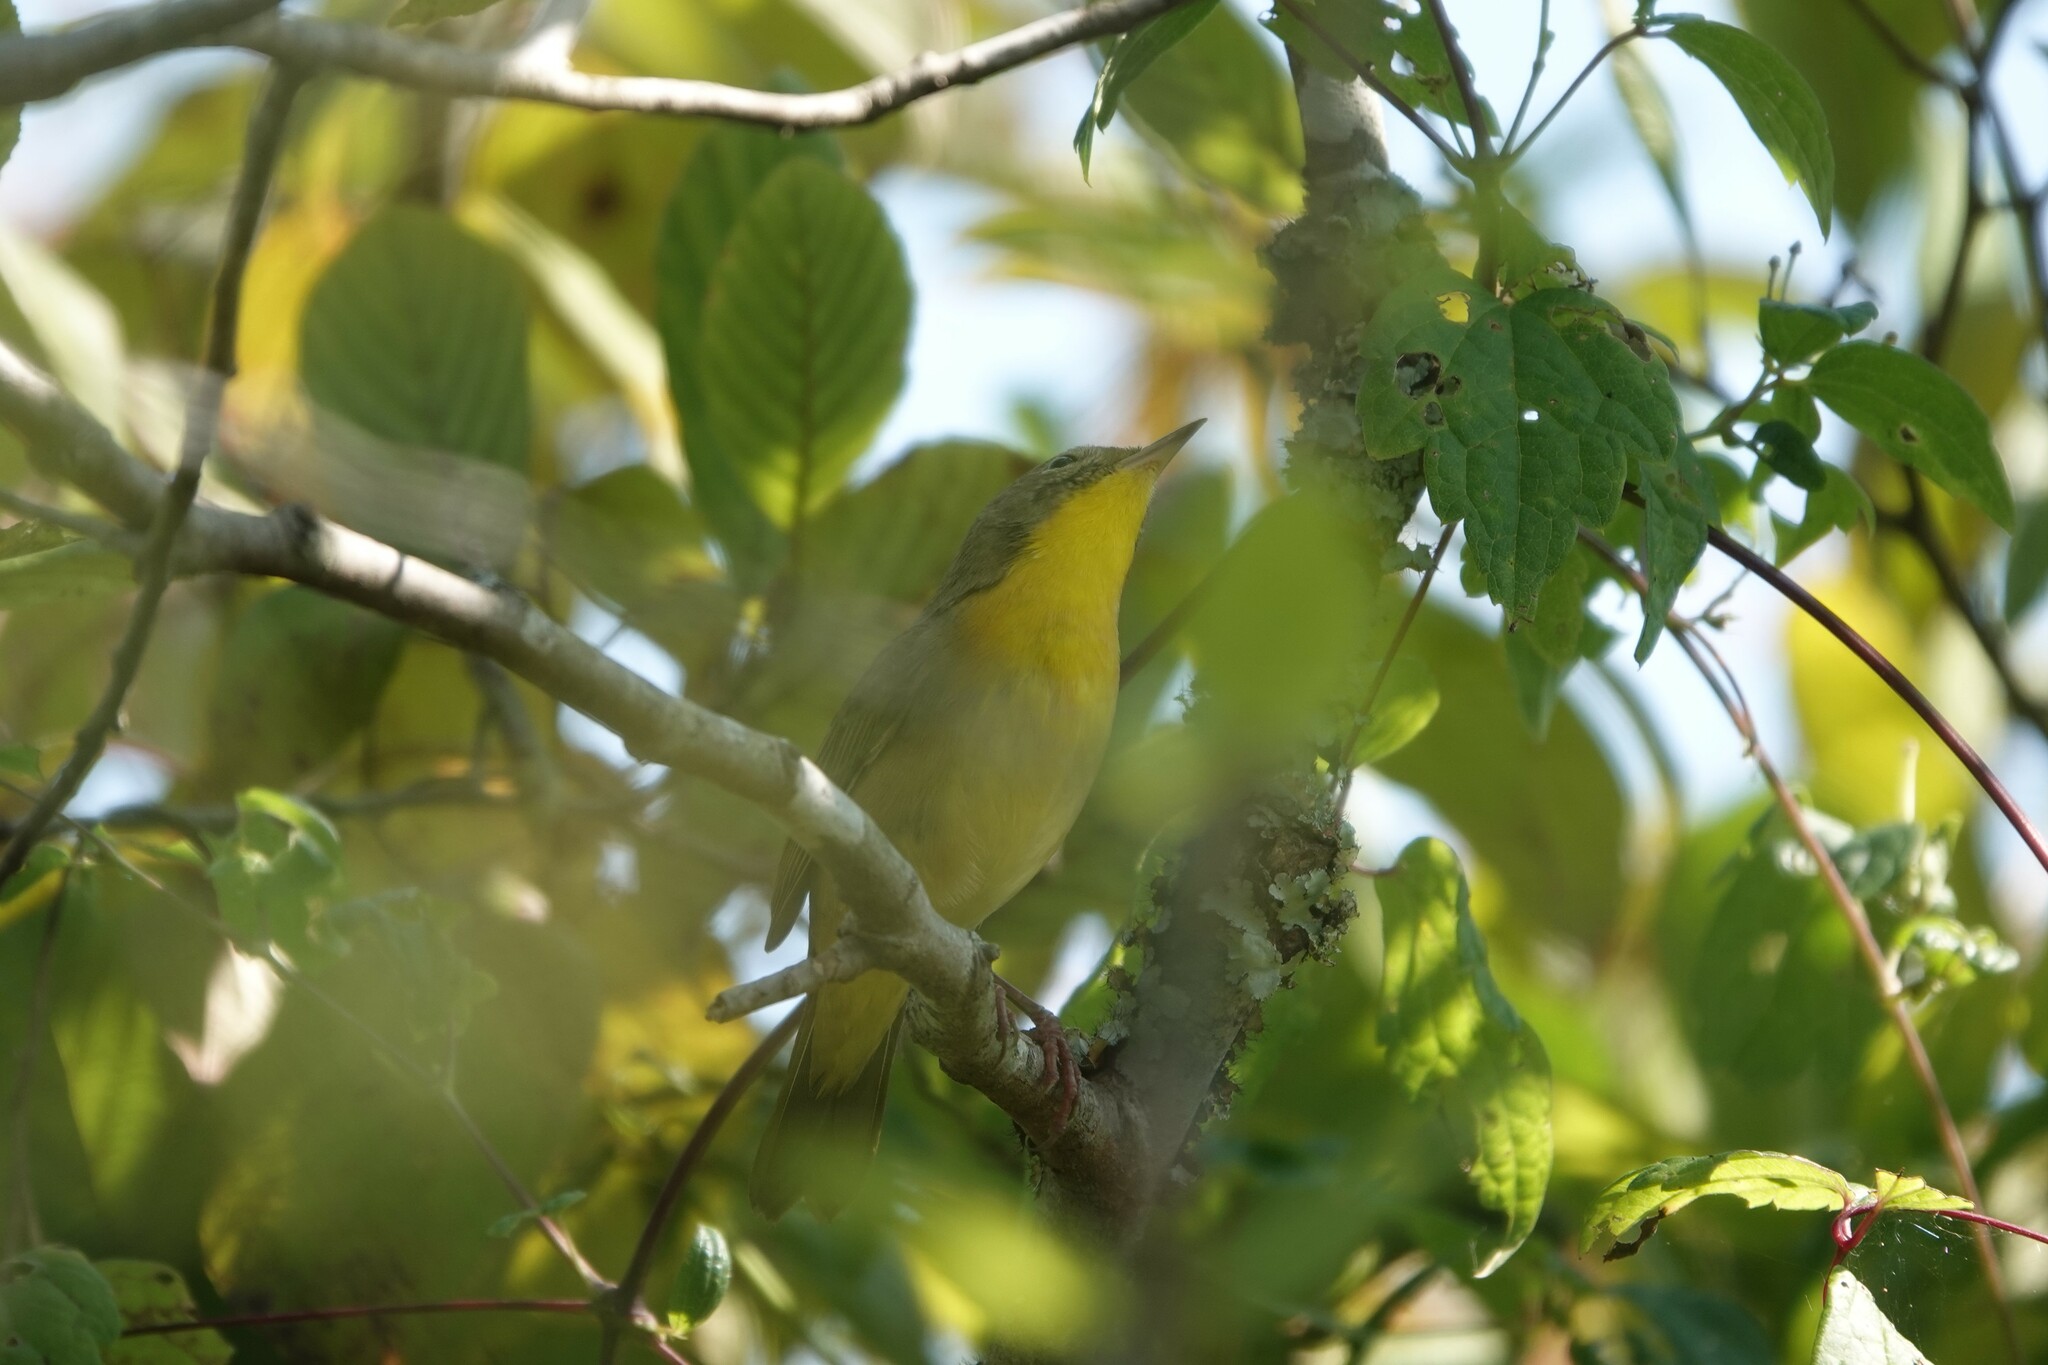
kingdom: Animalia
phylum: Chordata
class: Aves
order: Passeriformes
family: Parulidae
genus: Geothlypis
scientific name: Geothlypis trichas
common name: Common yellowthroat
